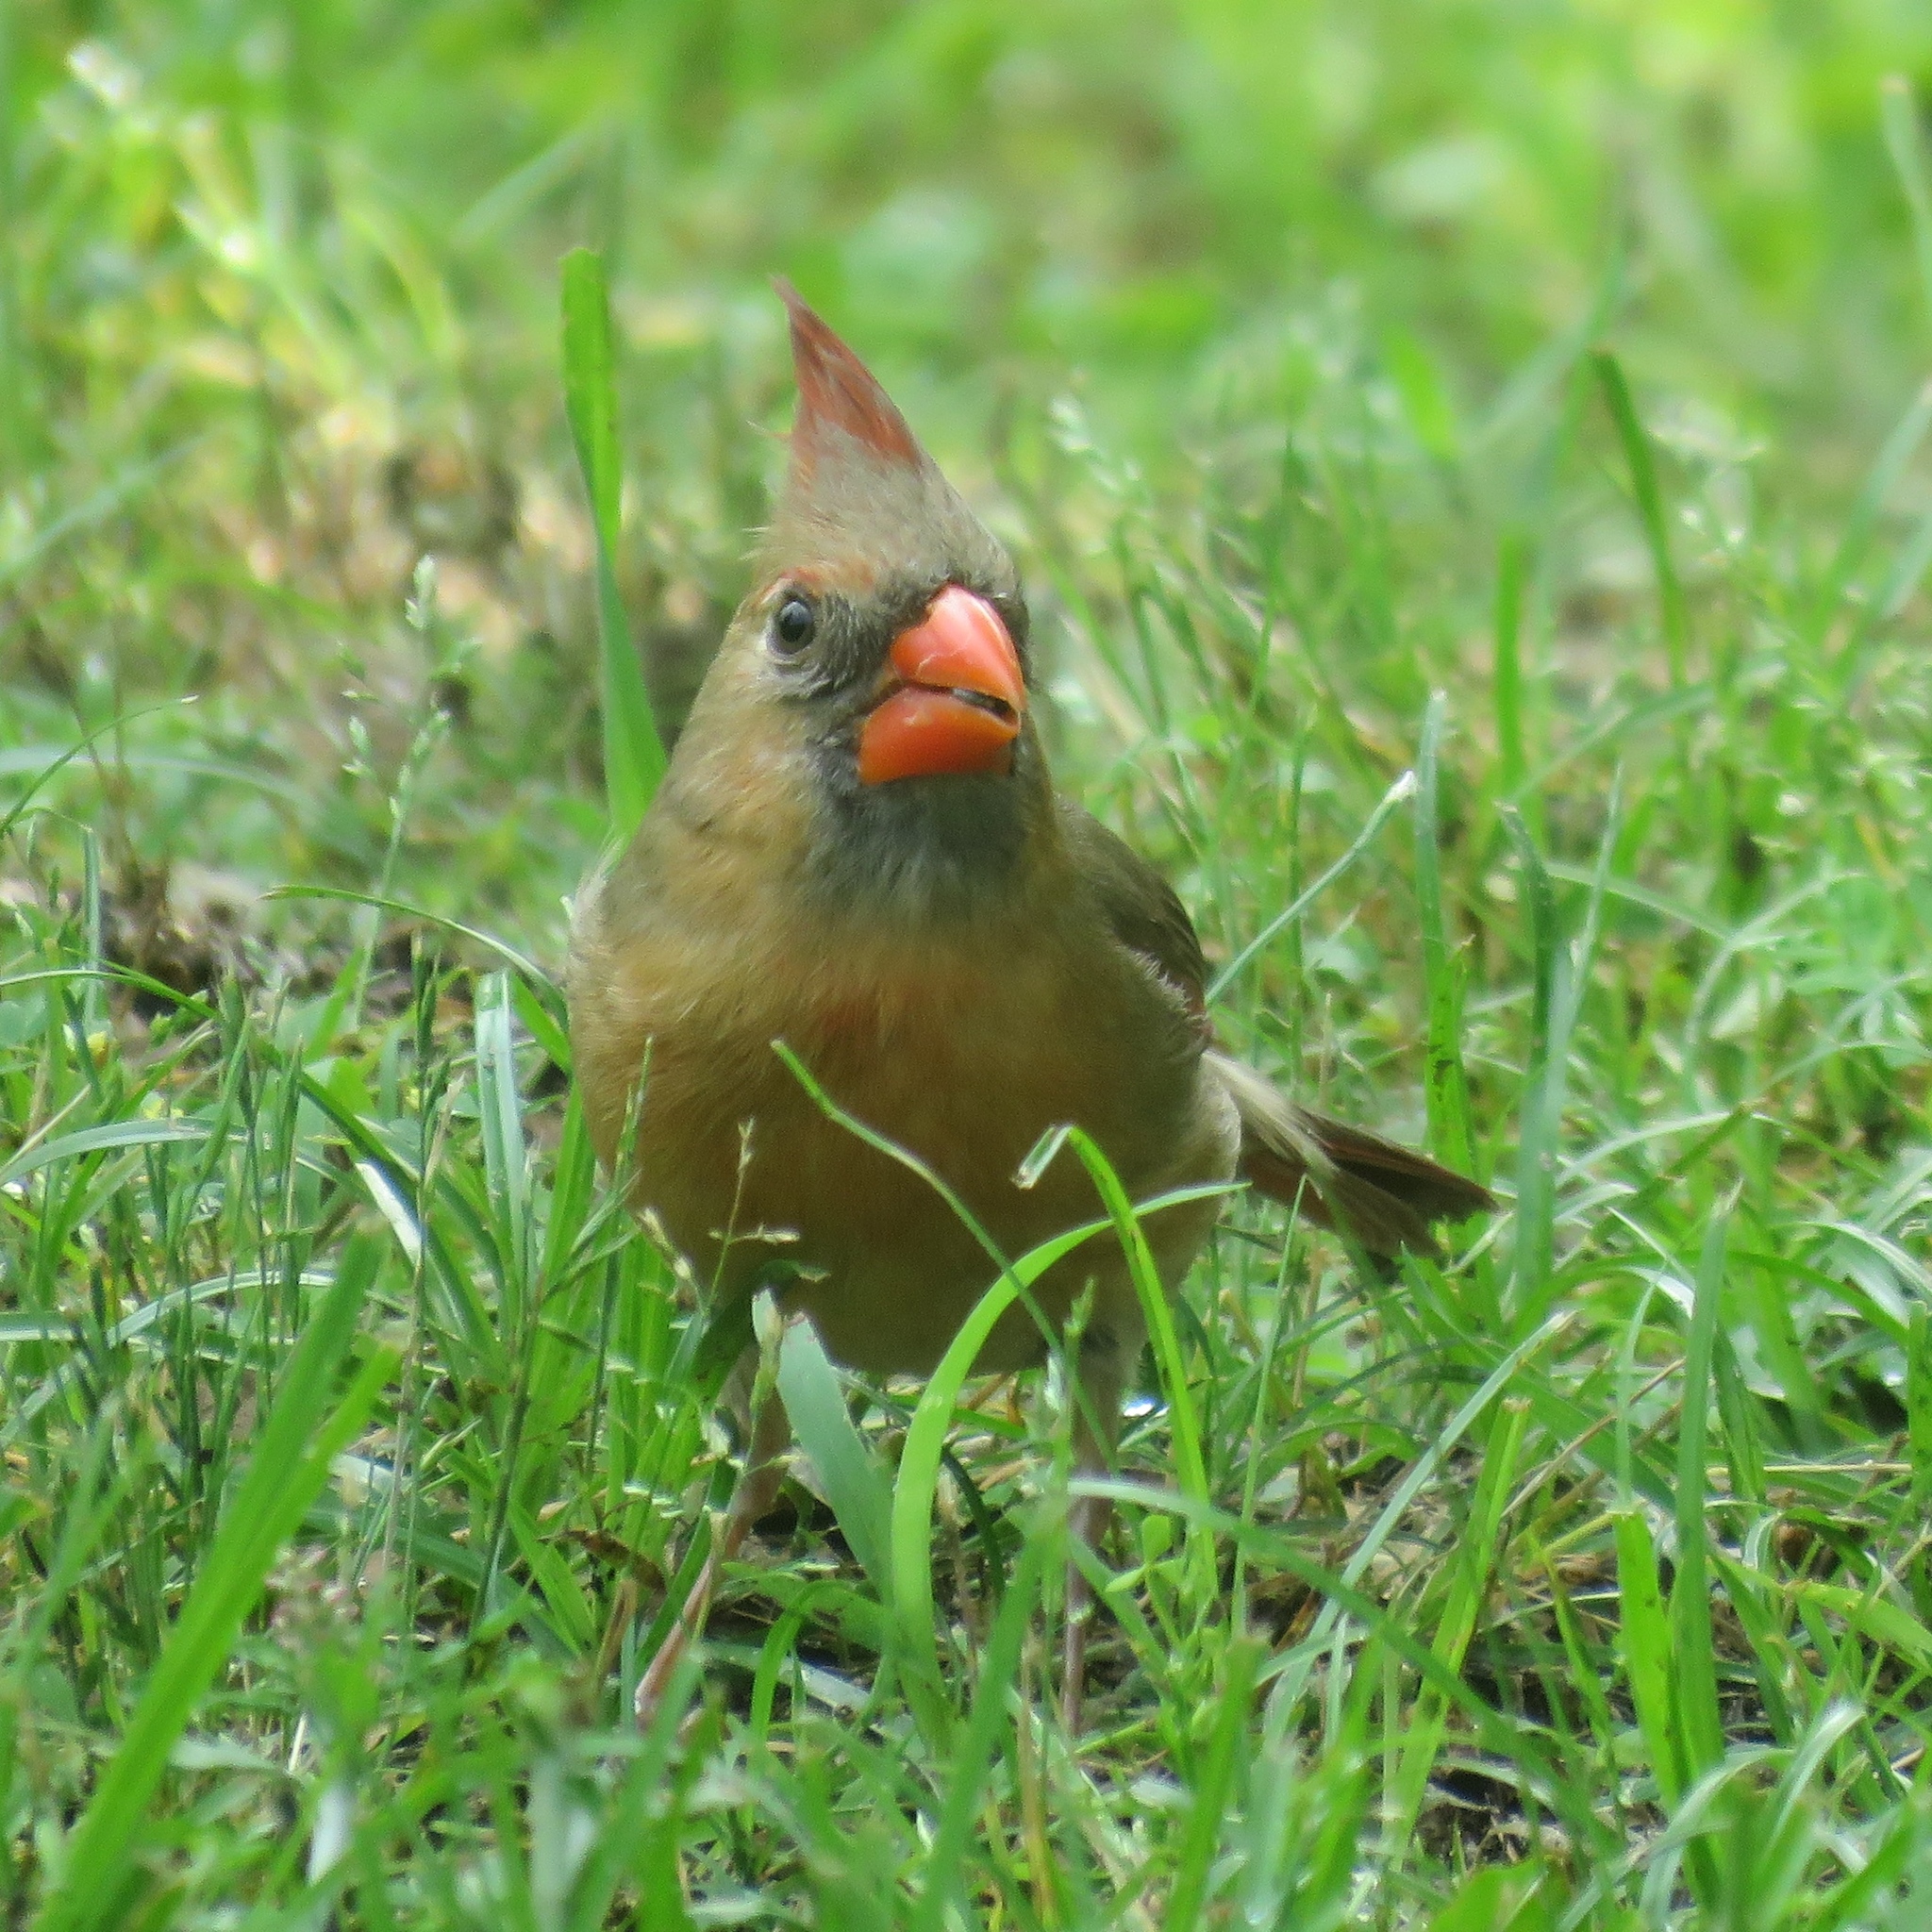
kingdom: Animalia
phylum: Chordata
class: Aves
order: Passeriformes
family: Cardinalidae
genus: Cardinalis
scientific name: Cardinalis cardinalis
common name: Northern cardinal
